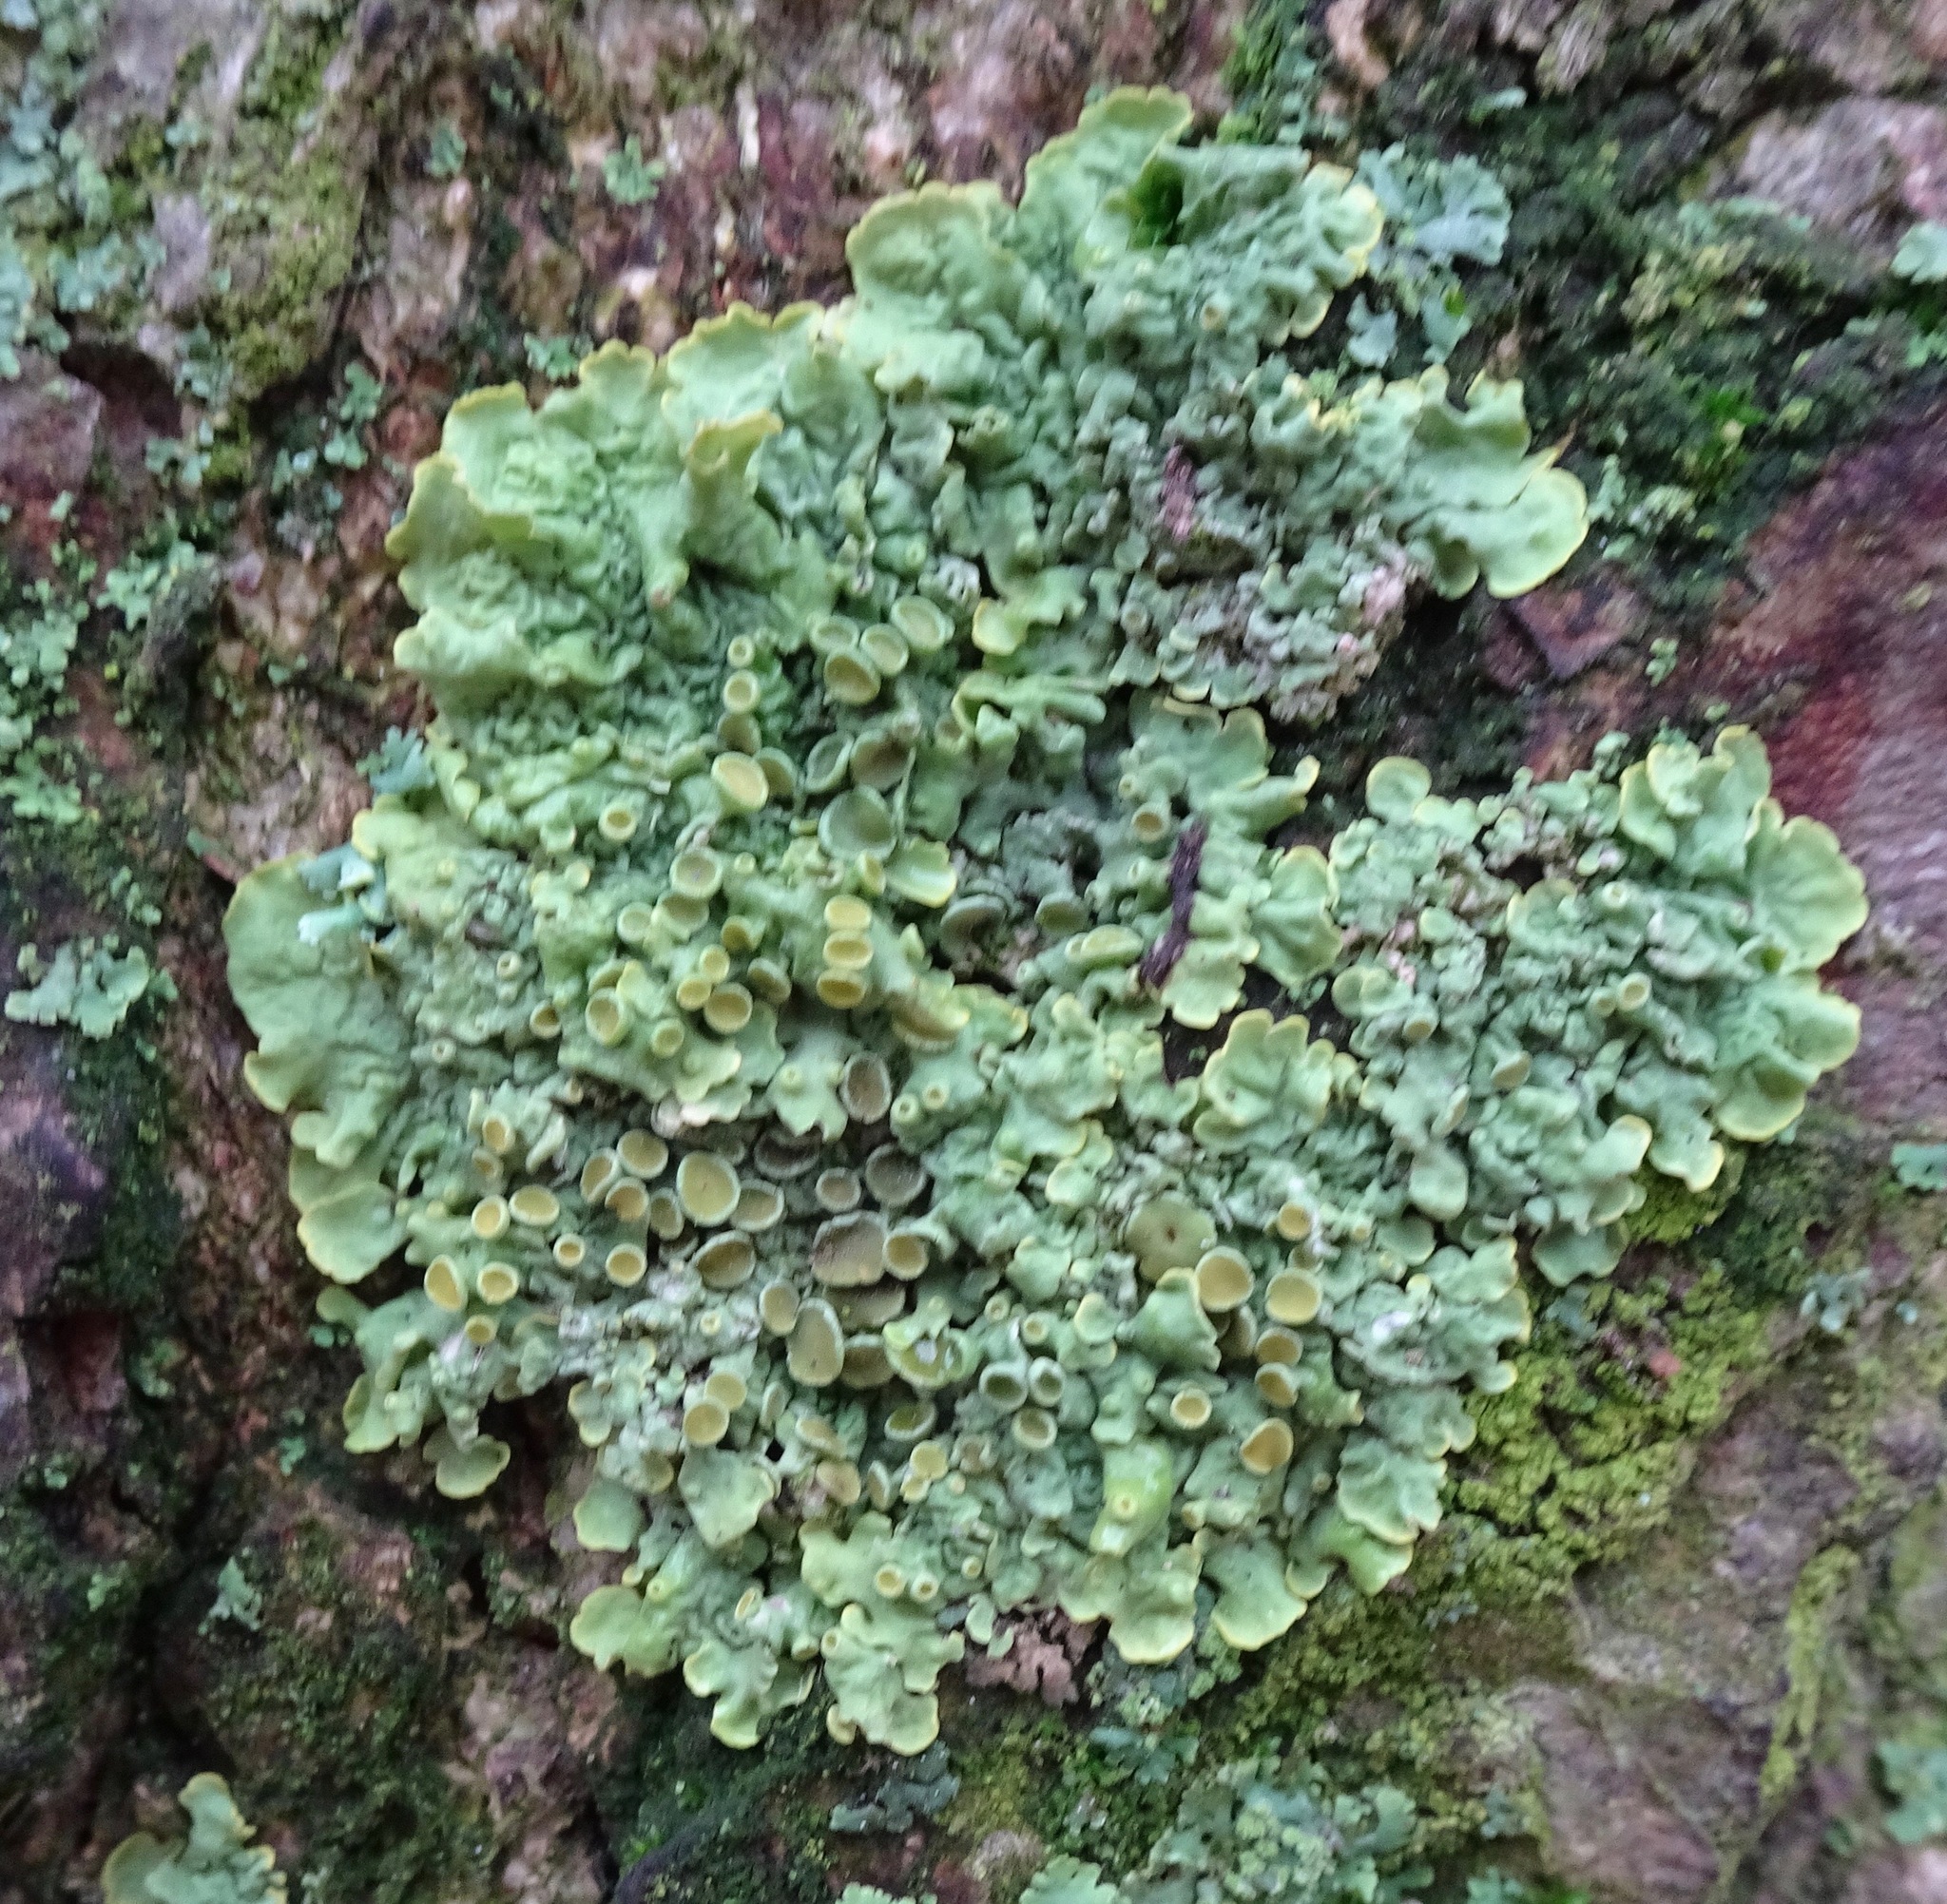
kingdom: Fungi
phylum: Ascomycota
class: Lecanoromycetes
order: Teloschistales
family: Teloschistaceae
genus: Xanthoria
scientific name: Xanthoria parietina
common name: Common orange lichen
